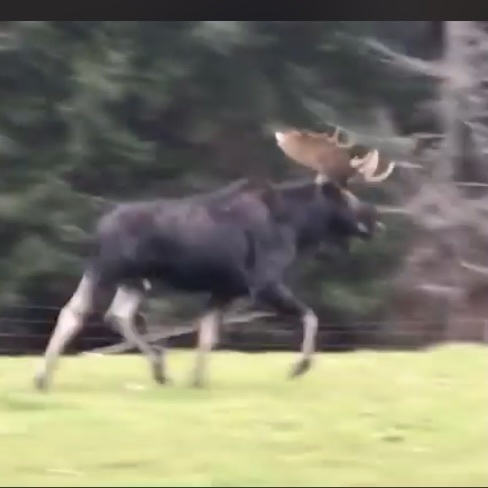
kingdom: Animalia
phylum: Chordata
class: Mammalia
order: Artiodactyla
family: Cervidae
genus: Alces
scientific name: Alces alces
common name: Moose
